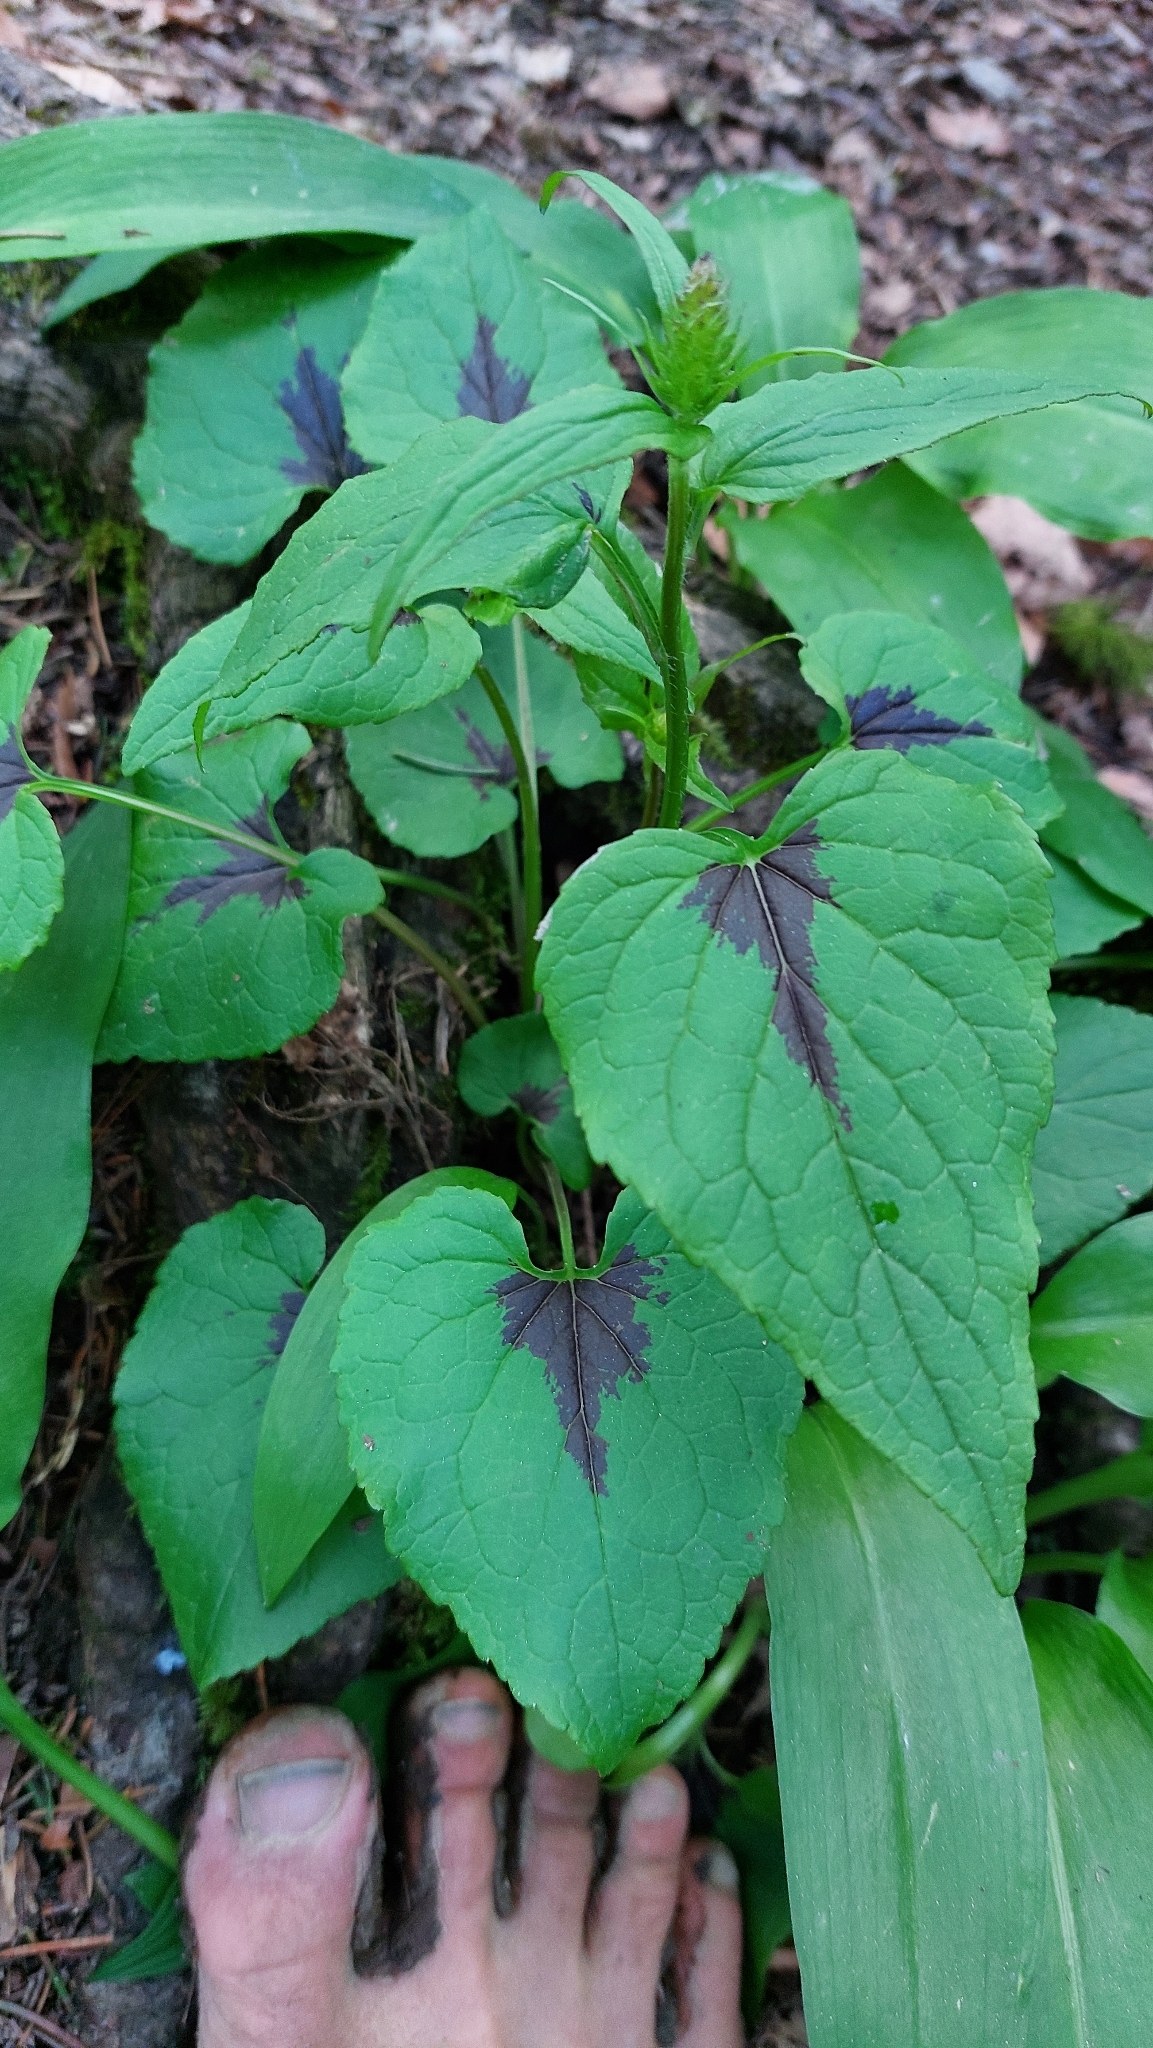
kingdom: Plantae
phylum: Tracheophyta
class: Magnoliopsida
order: Asterales
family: Campanulaceae
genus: Phyteuma
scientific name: Phyteuma spicatum
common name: Spiked rampion
